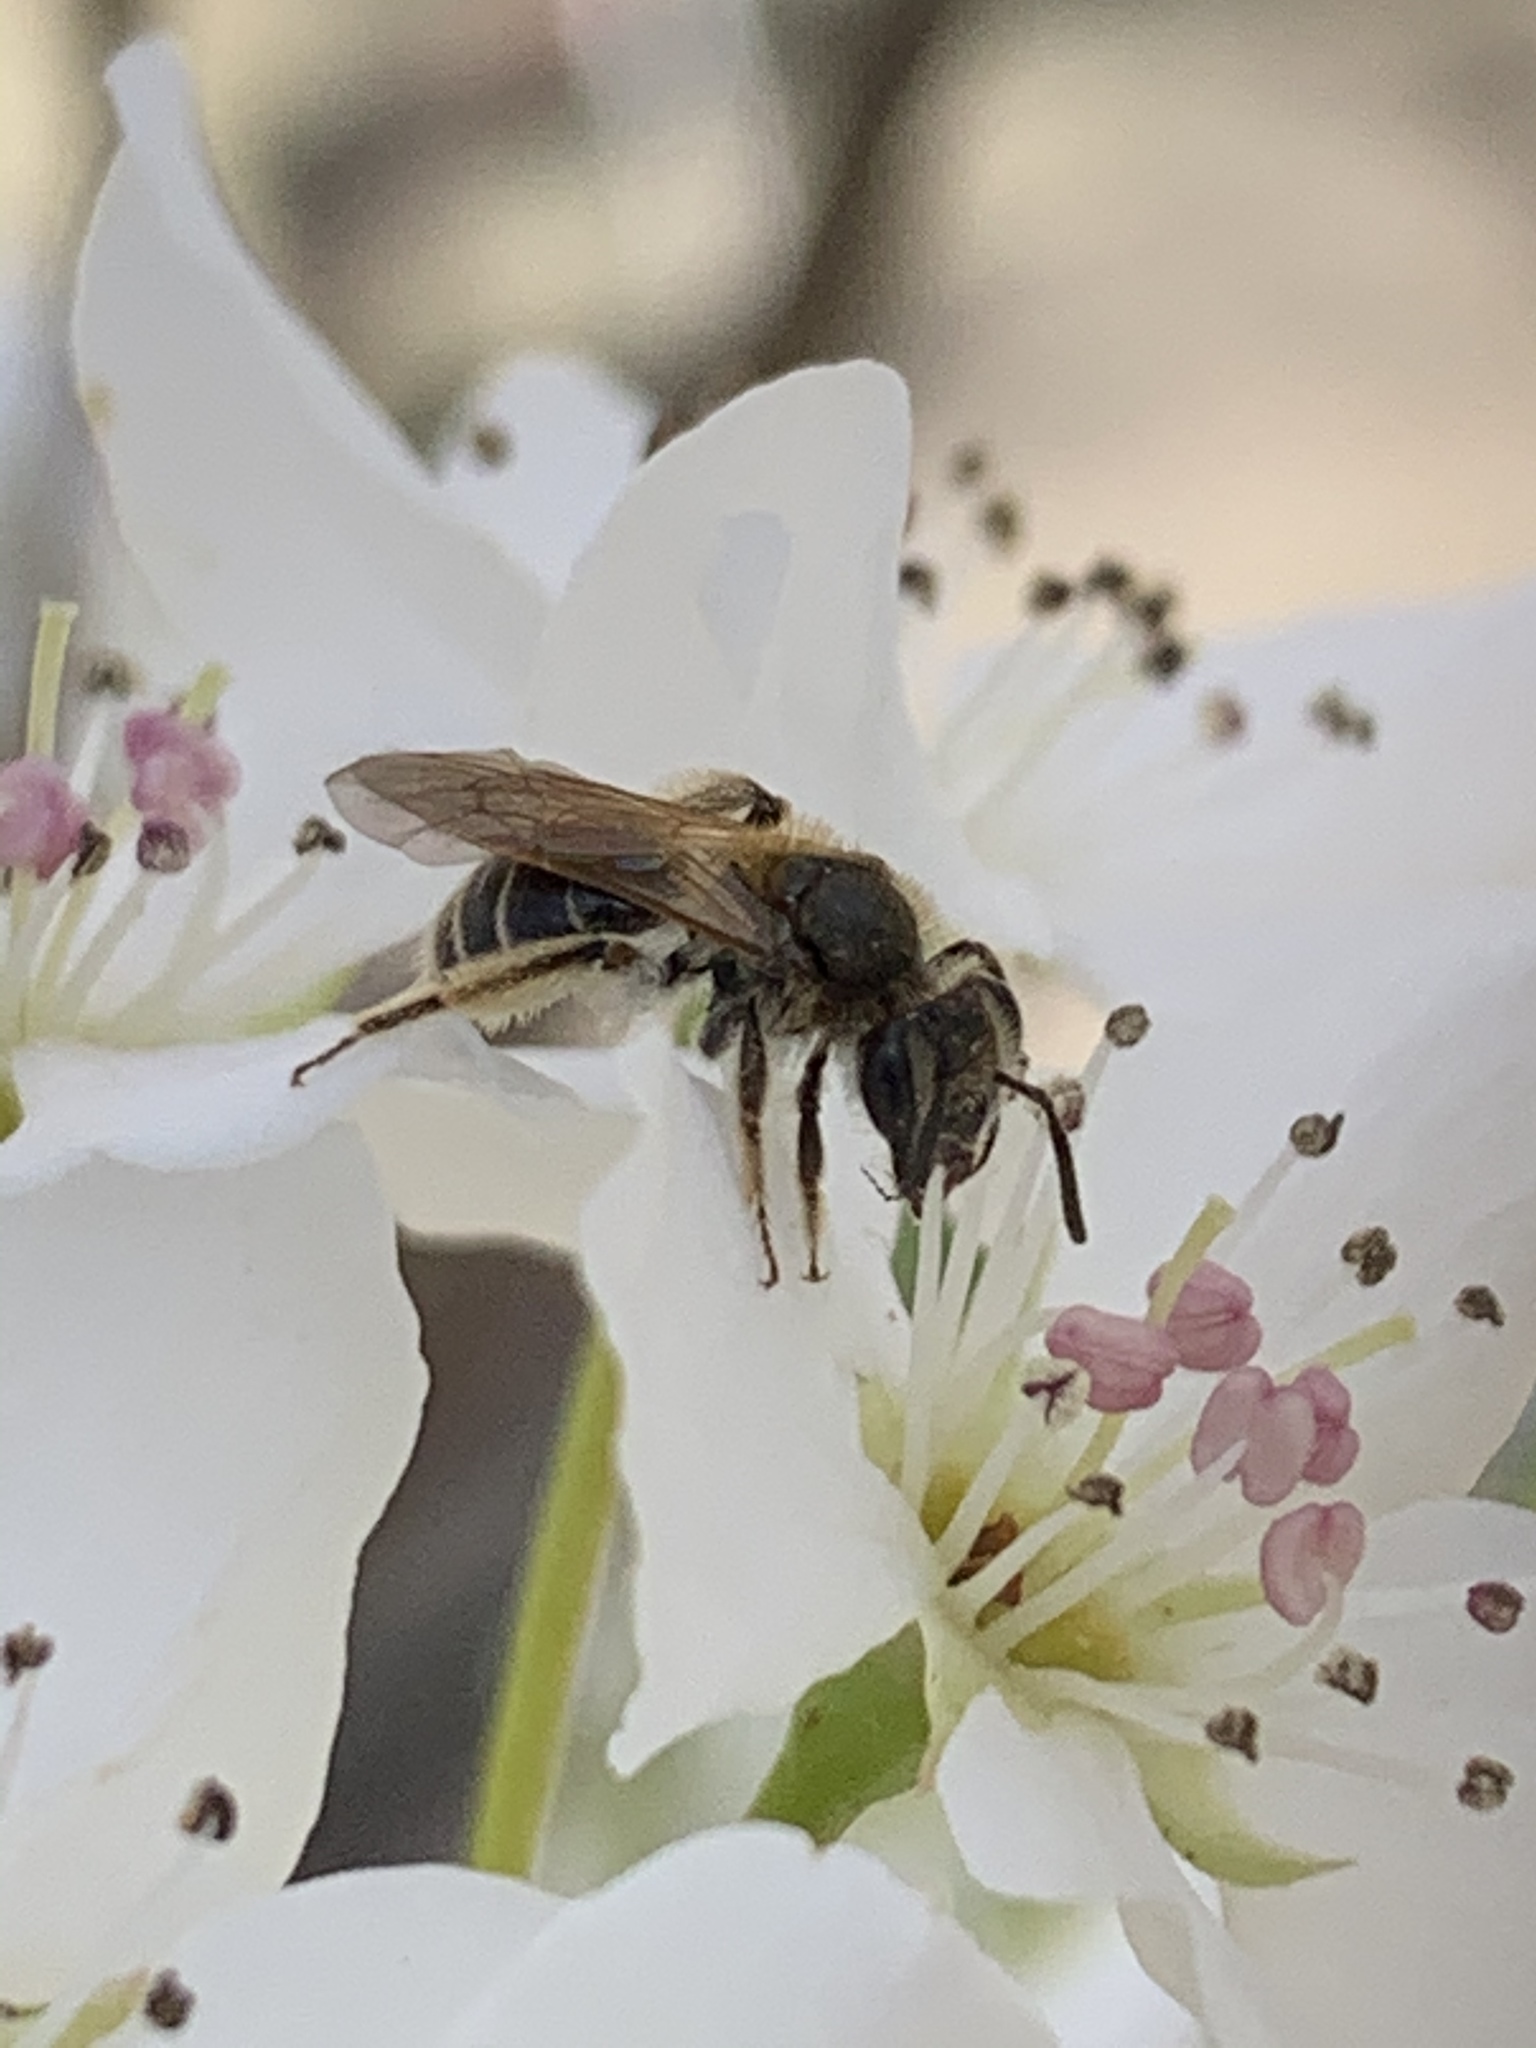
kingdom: Animalia
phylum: Arthropoda
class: Insecta
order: Hymenoptera
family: Andrenidae
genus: Andrena
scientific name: Andrena
